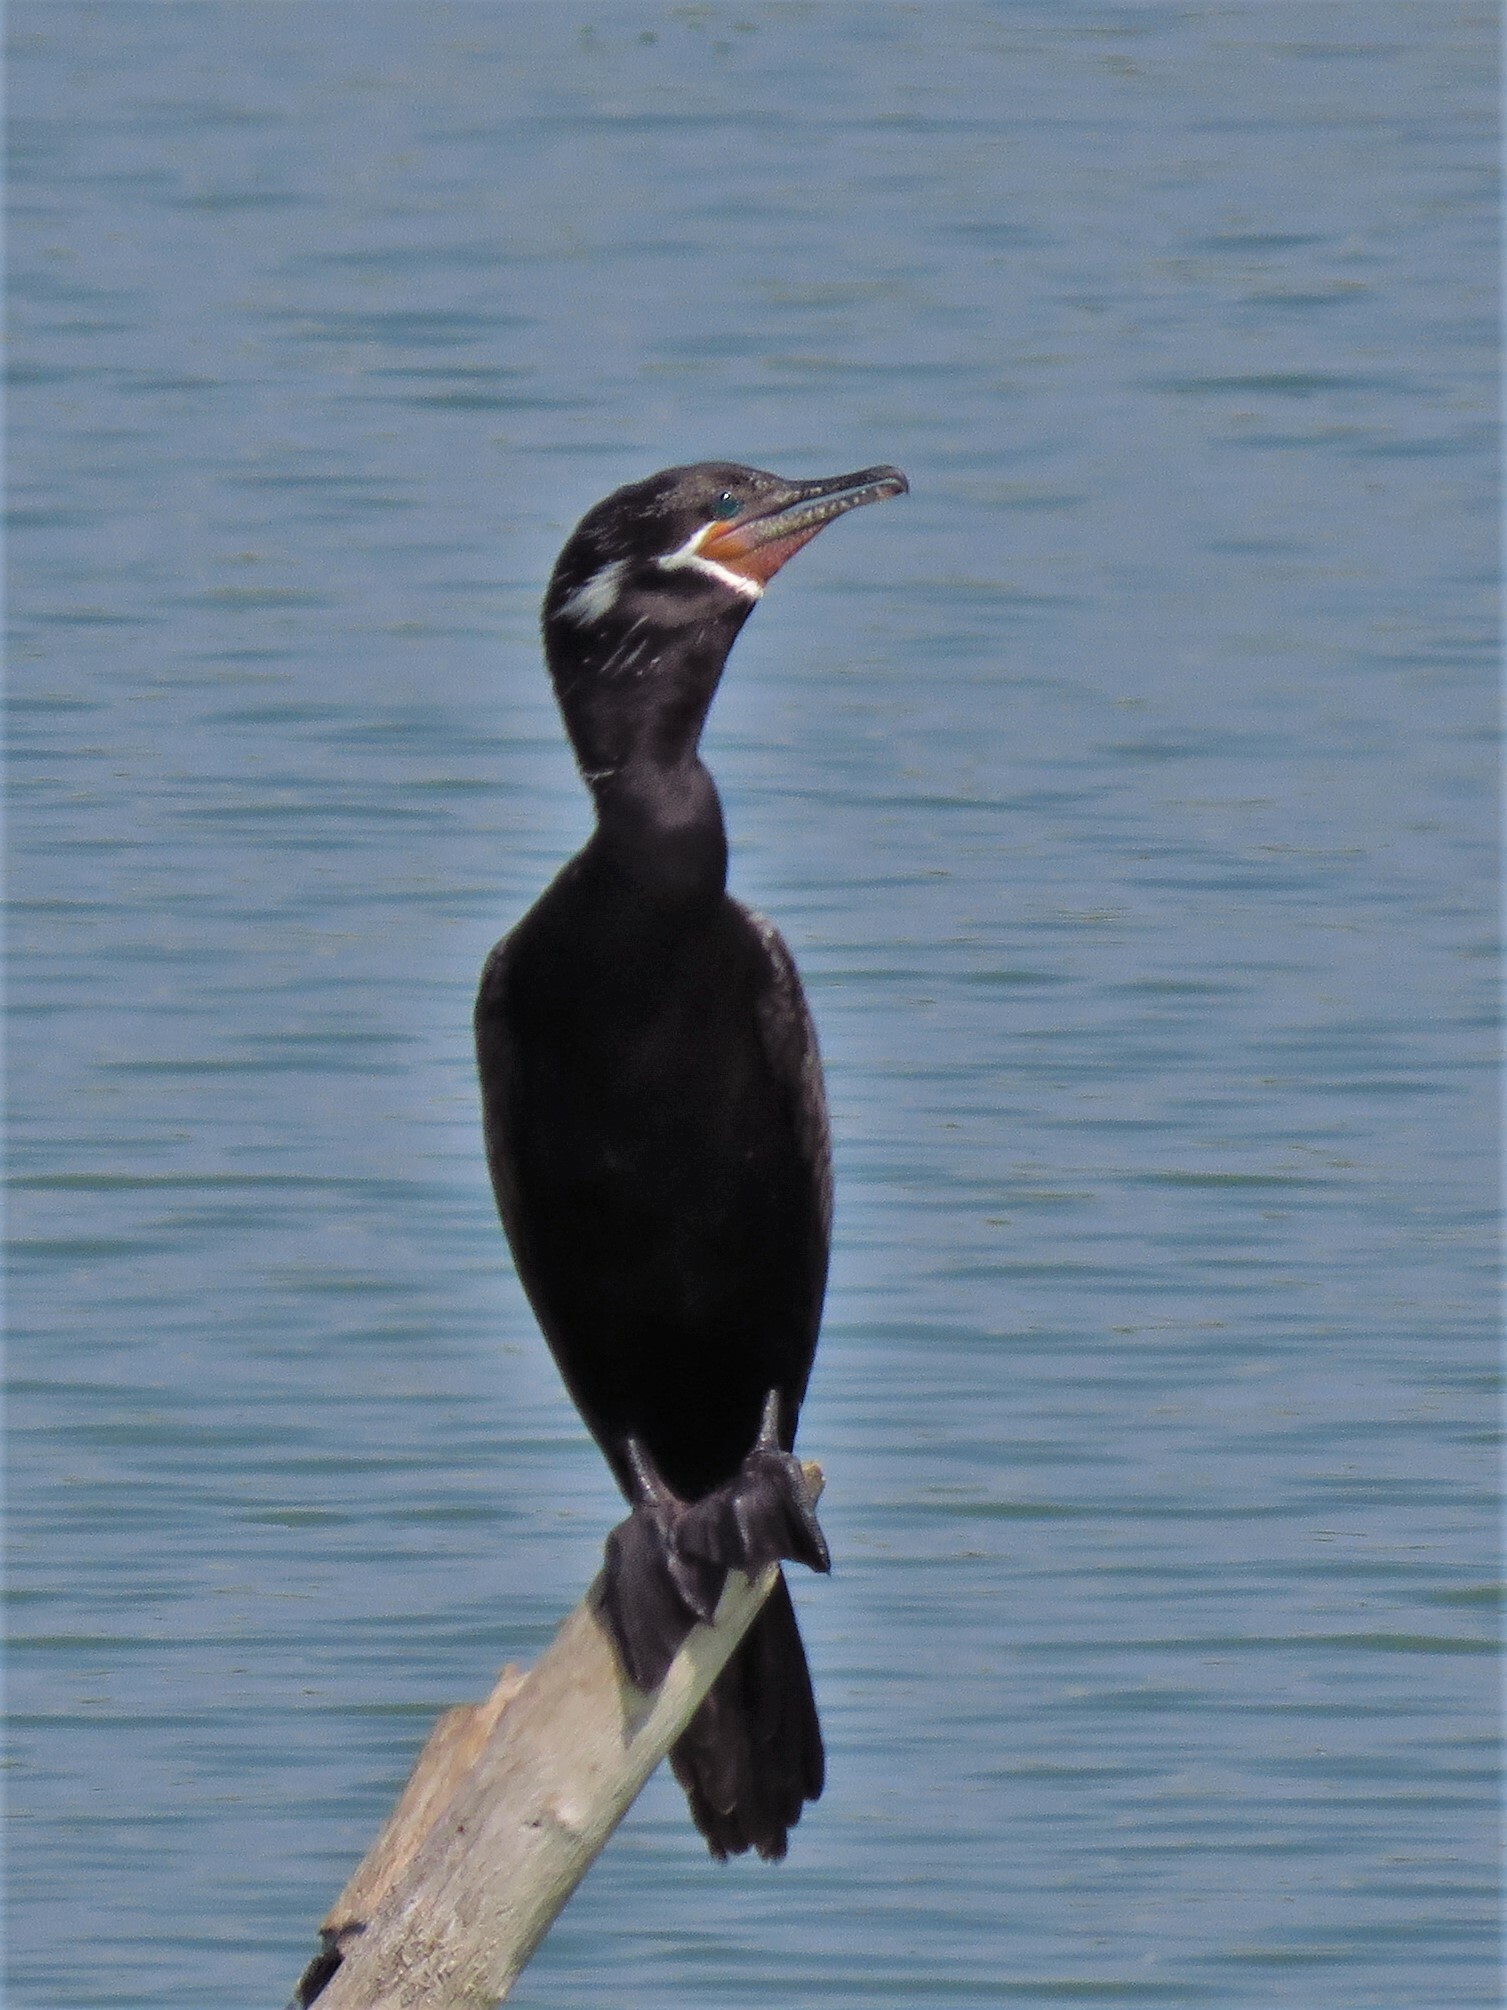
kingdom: Animalia
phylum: Chordata
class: Aves
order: Suliformes
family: Phalacrocoracidae
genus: Phalacrocorax
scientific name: Phalacrocorax brasilianus
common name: Neotropic cormorant
